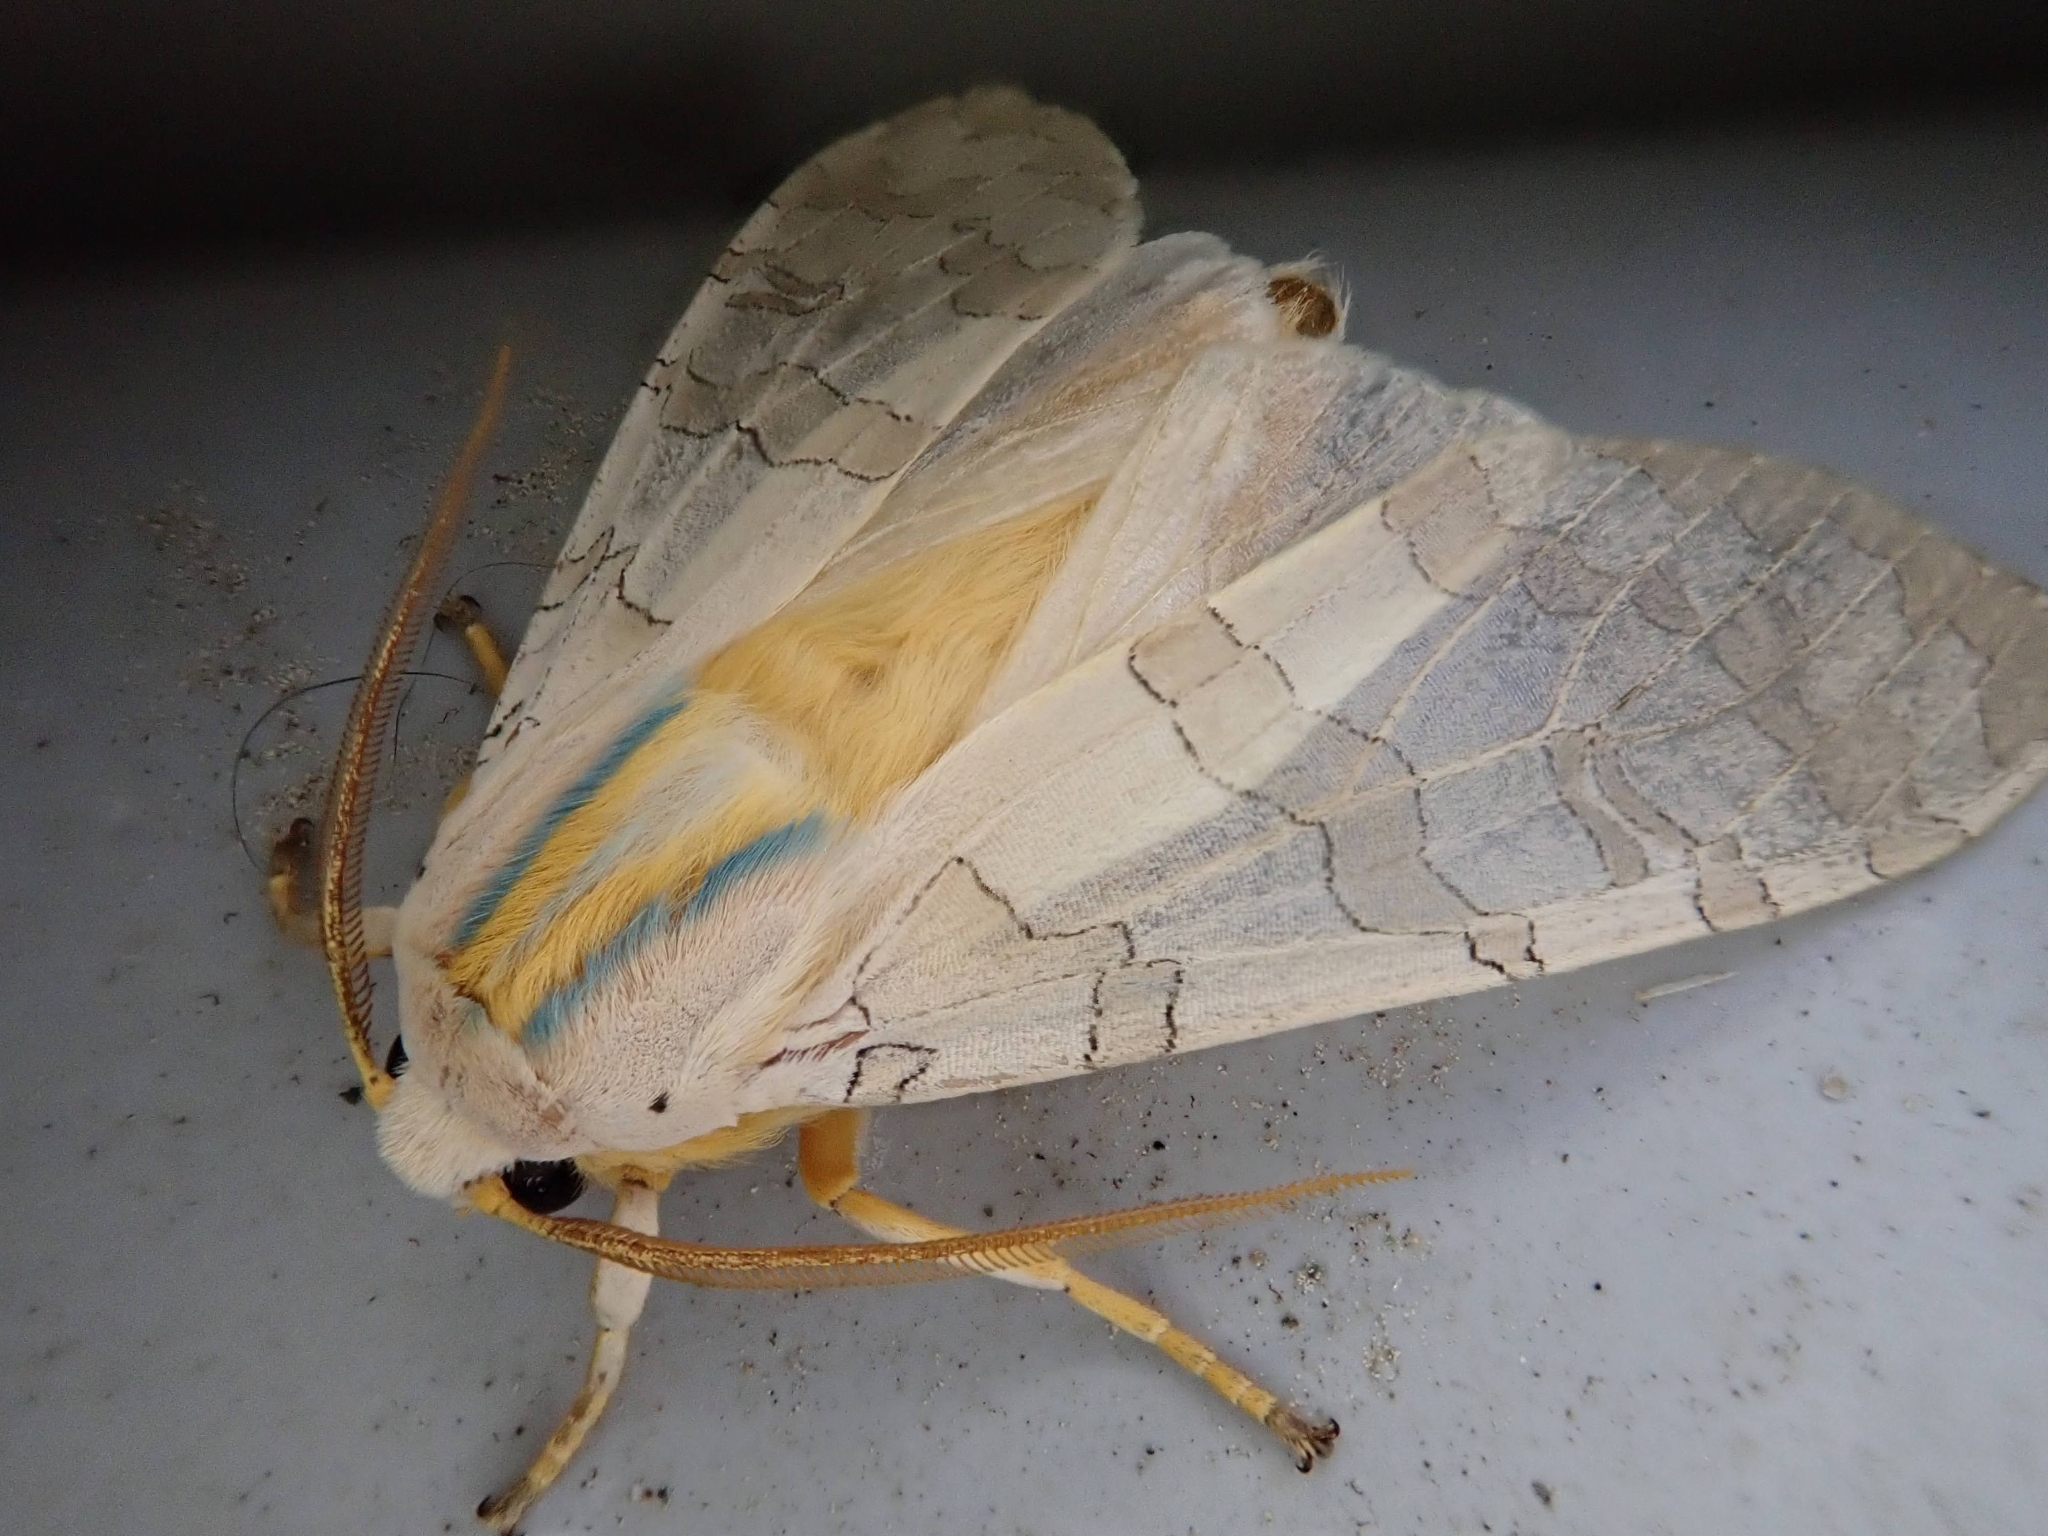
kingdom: Animalia
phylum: Arthropoda
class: Insecta
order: Lepidoptera
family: Erebidae
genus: Halysidota
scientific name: Halysidota
